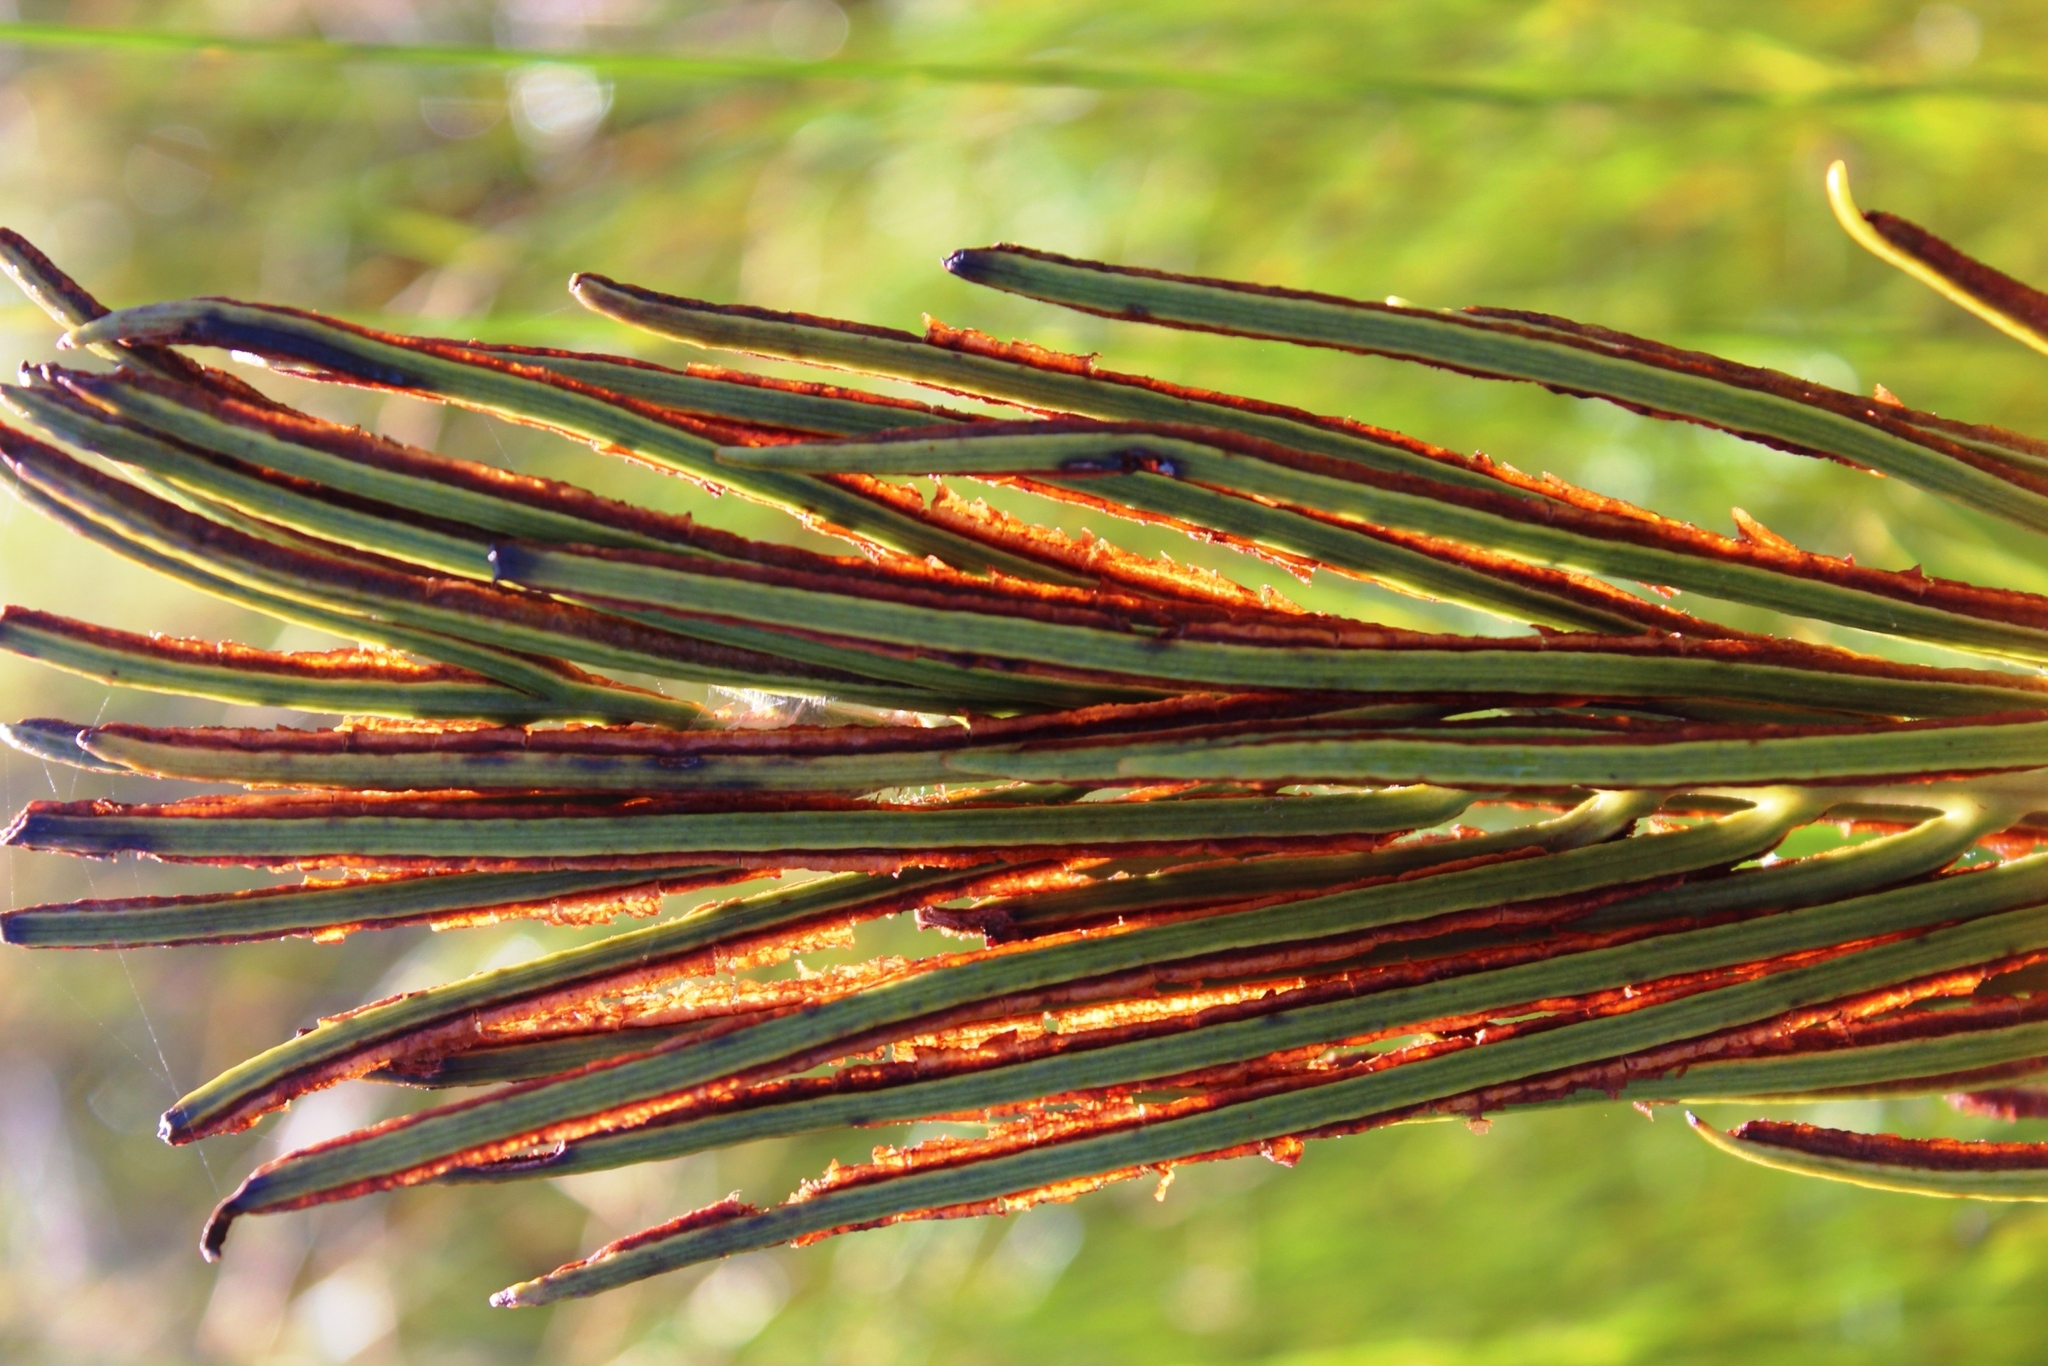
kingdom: Plantae
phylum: Tracheophyta
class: Polypodiopsida
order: Polypodiales
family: Blechnaceae
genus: Lomariocycas
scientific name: Lomariocycas tabularis
